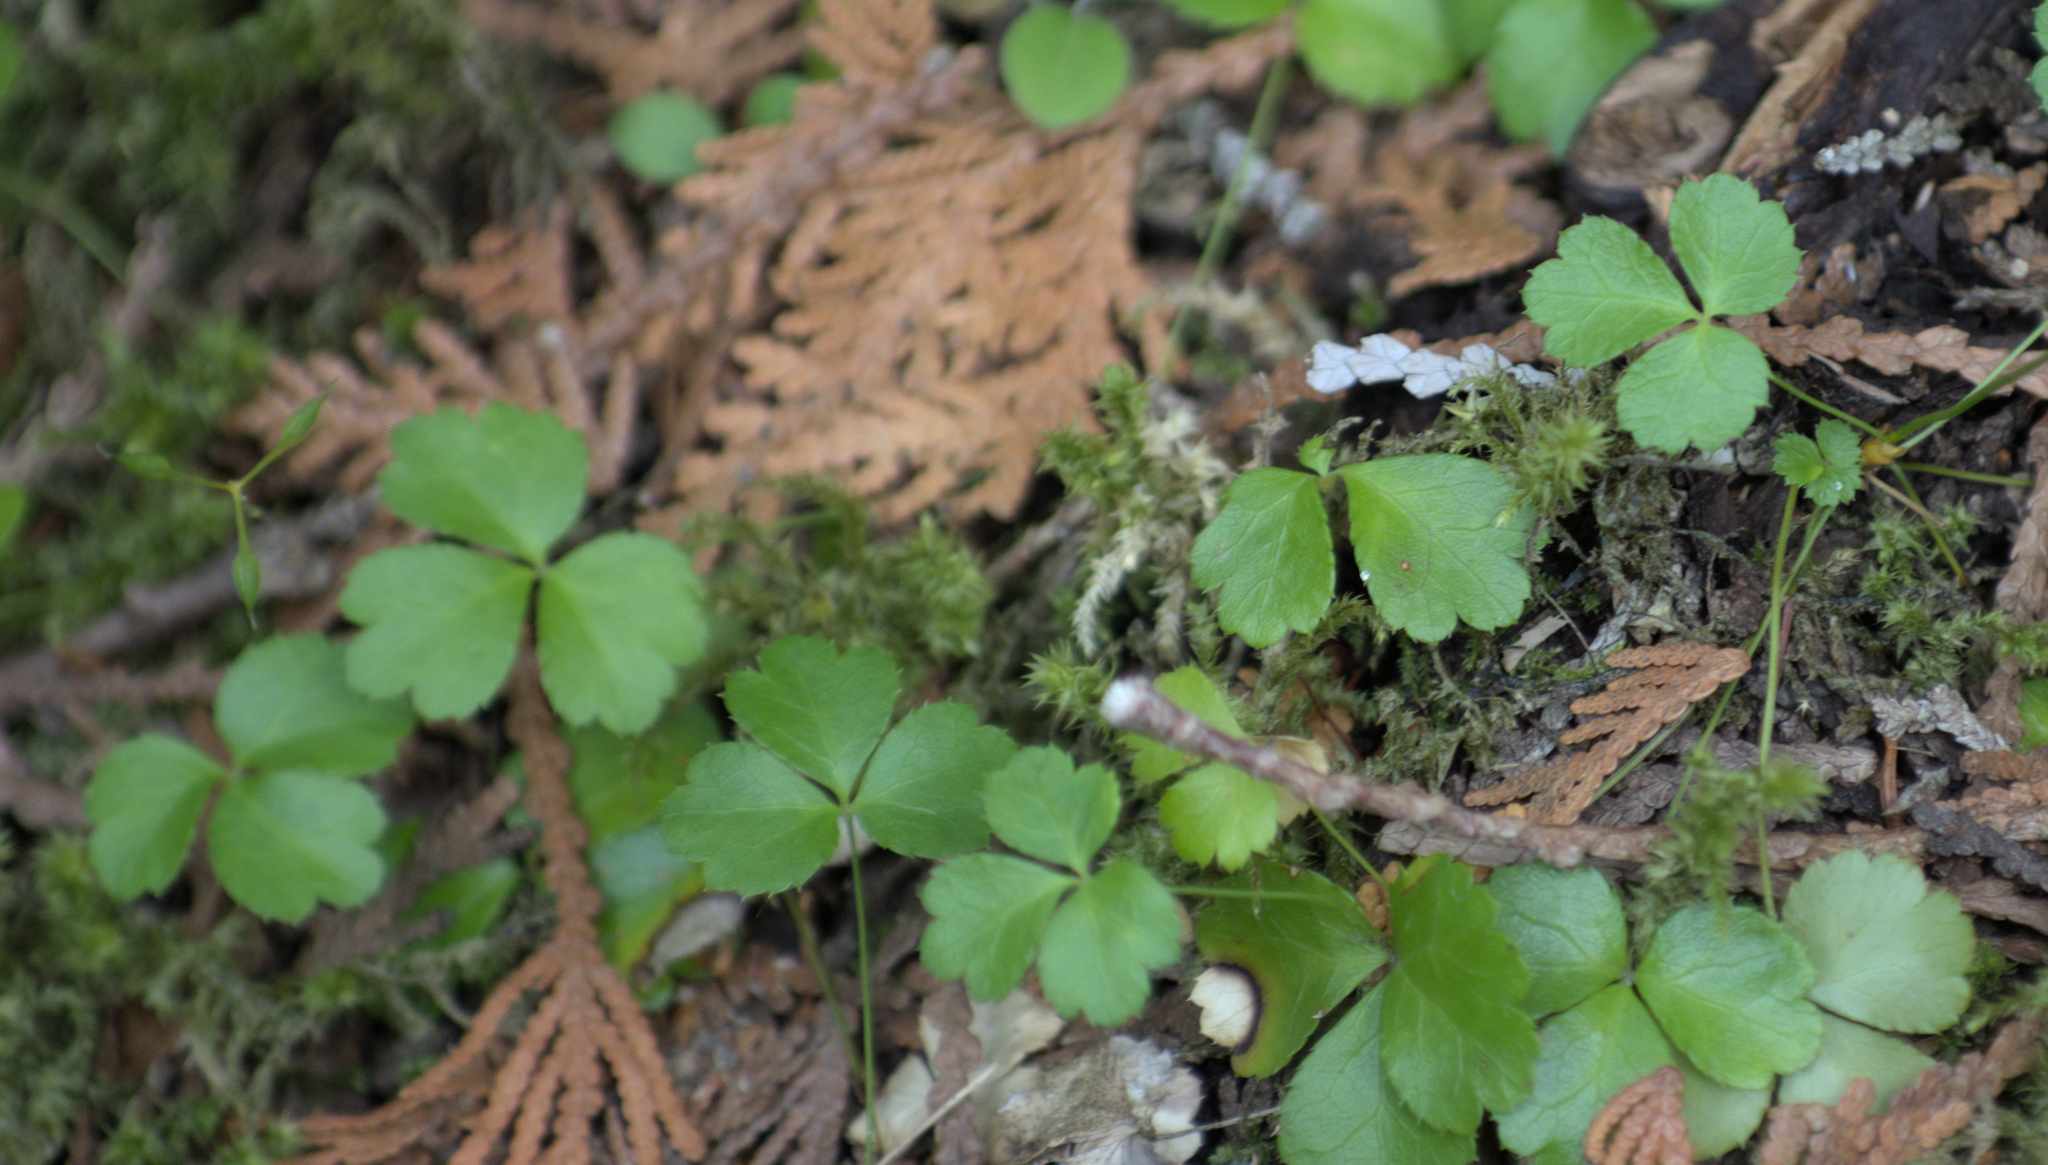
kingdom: Plantae
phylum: Tracheophyta
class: Magnoliopsida
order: Ranunculales
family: Ranunculaceae
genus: Coptis
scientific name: Coptis trifolia
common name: Canker-root
